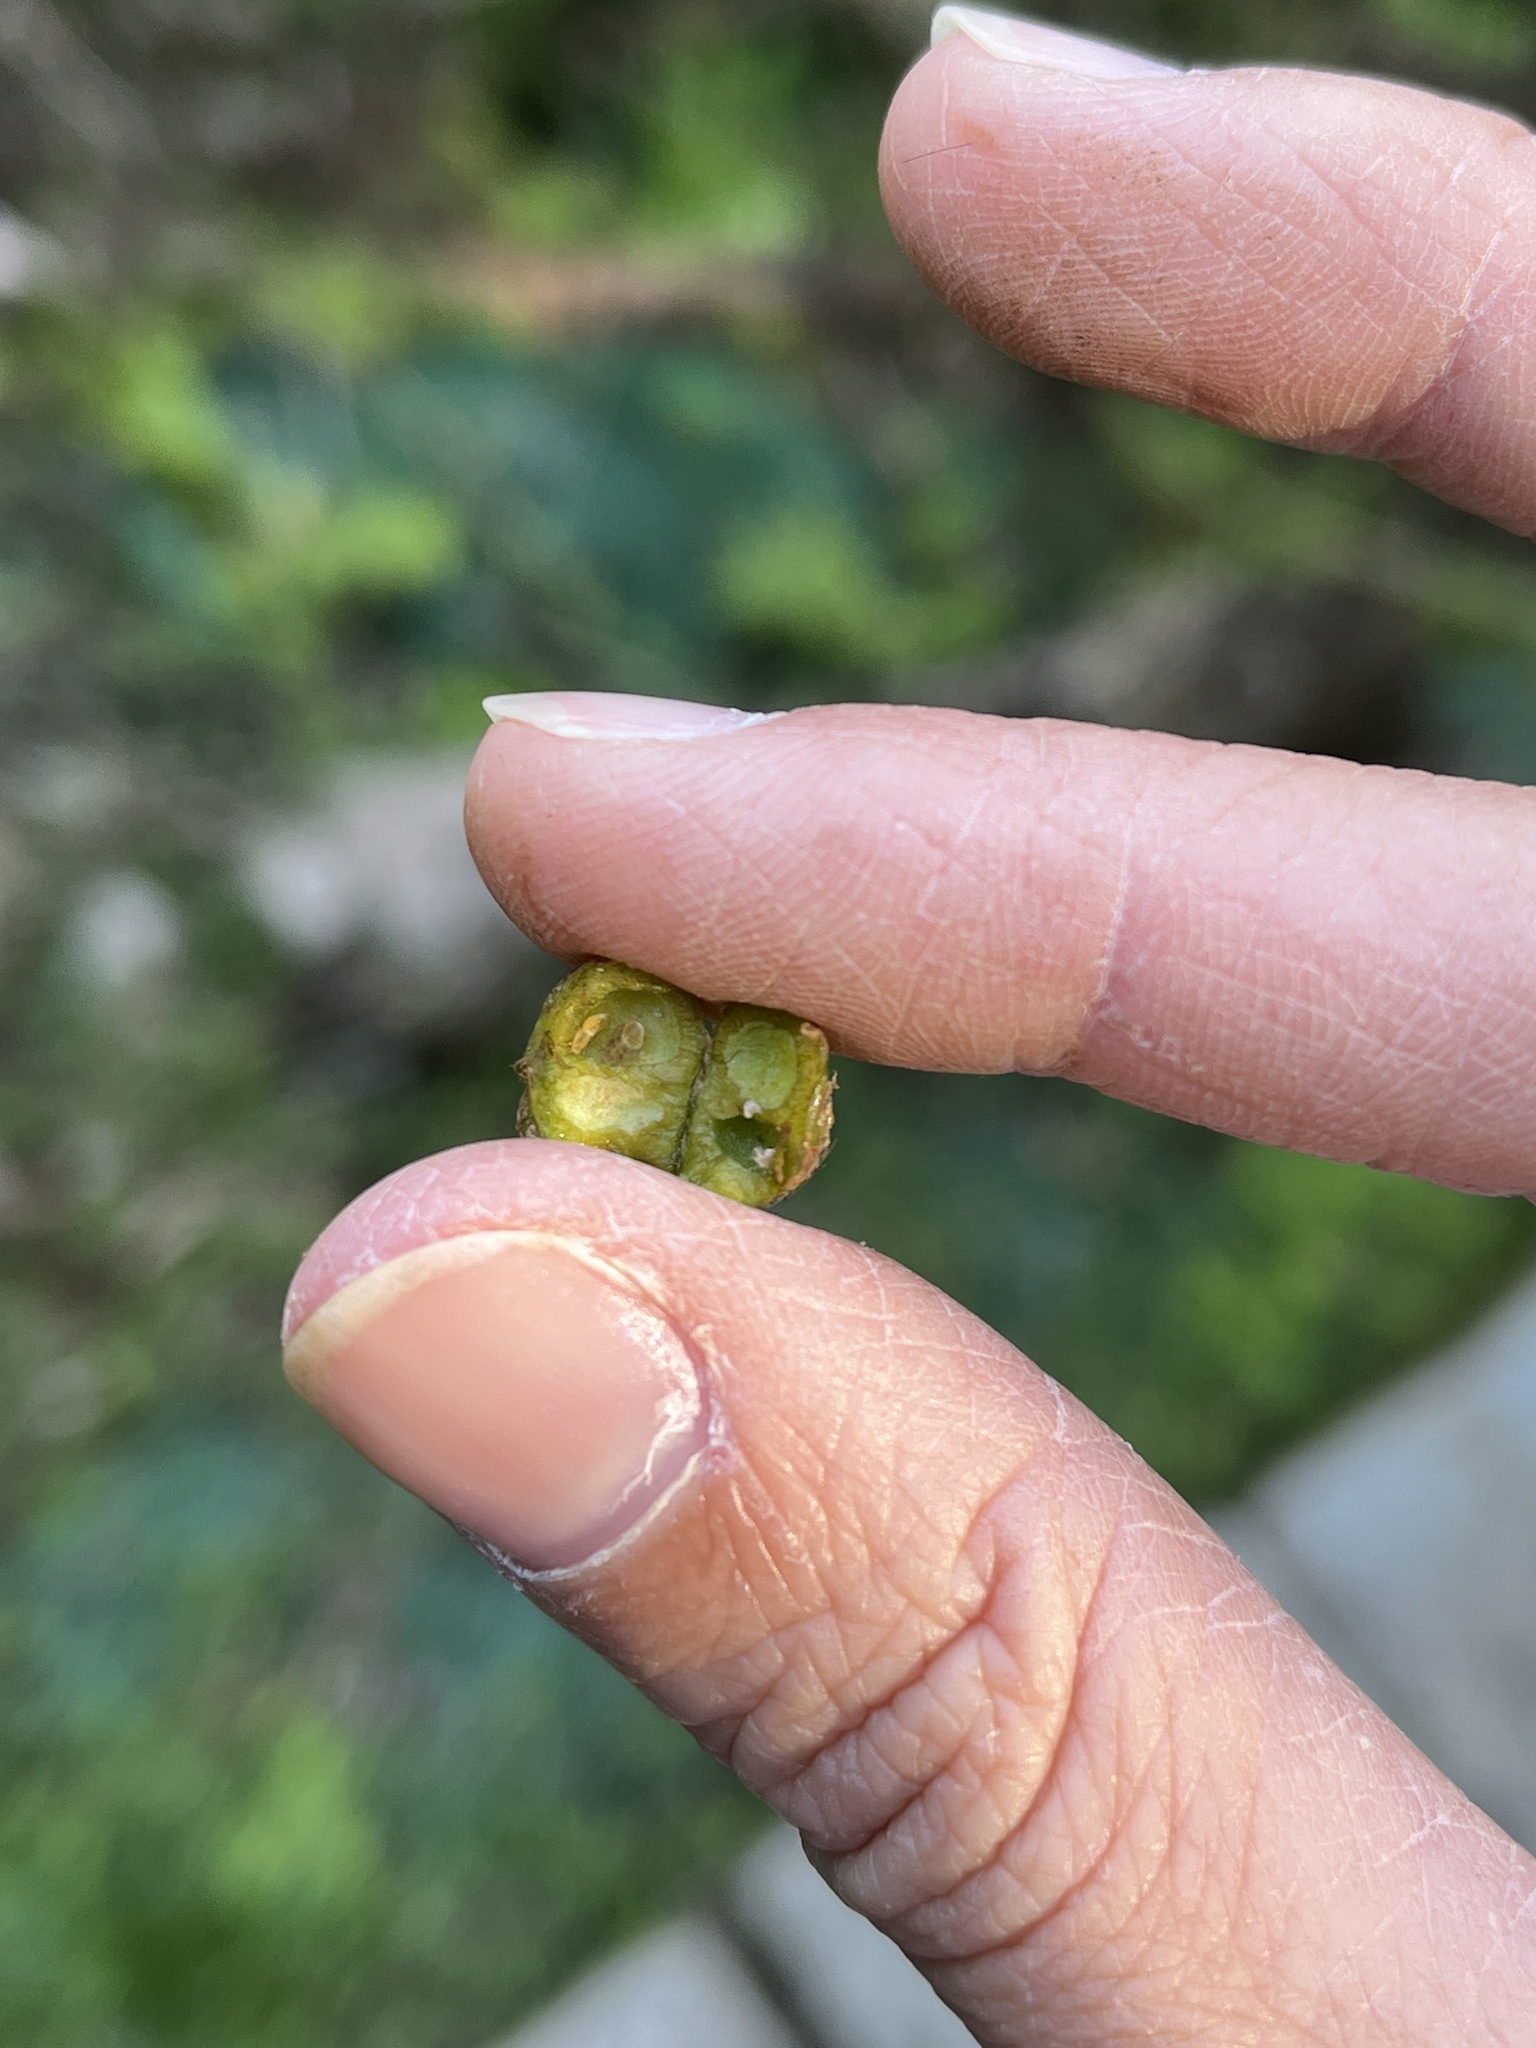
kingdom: Plantae
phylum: Tracheophyta
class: Magnoliopsida
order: Apiales
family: Araliaceae
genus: Eleutherococcus
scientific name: Eleutherococcus trifoliatus
